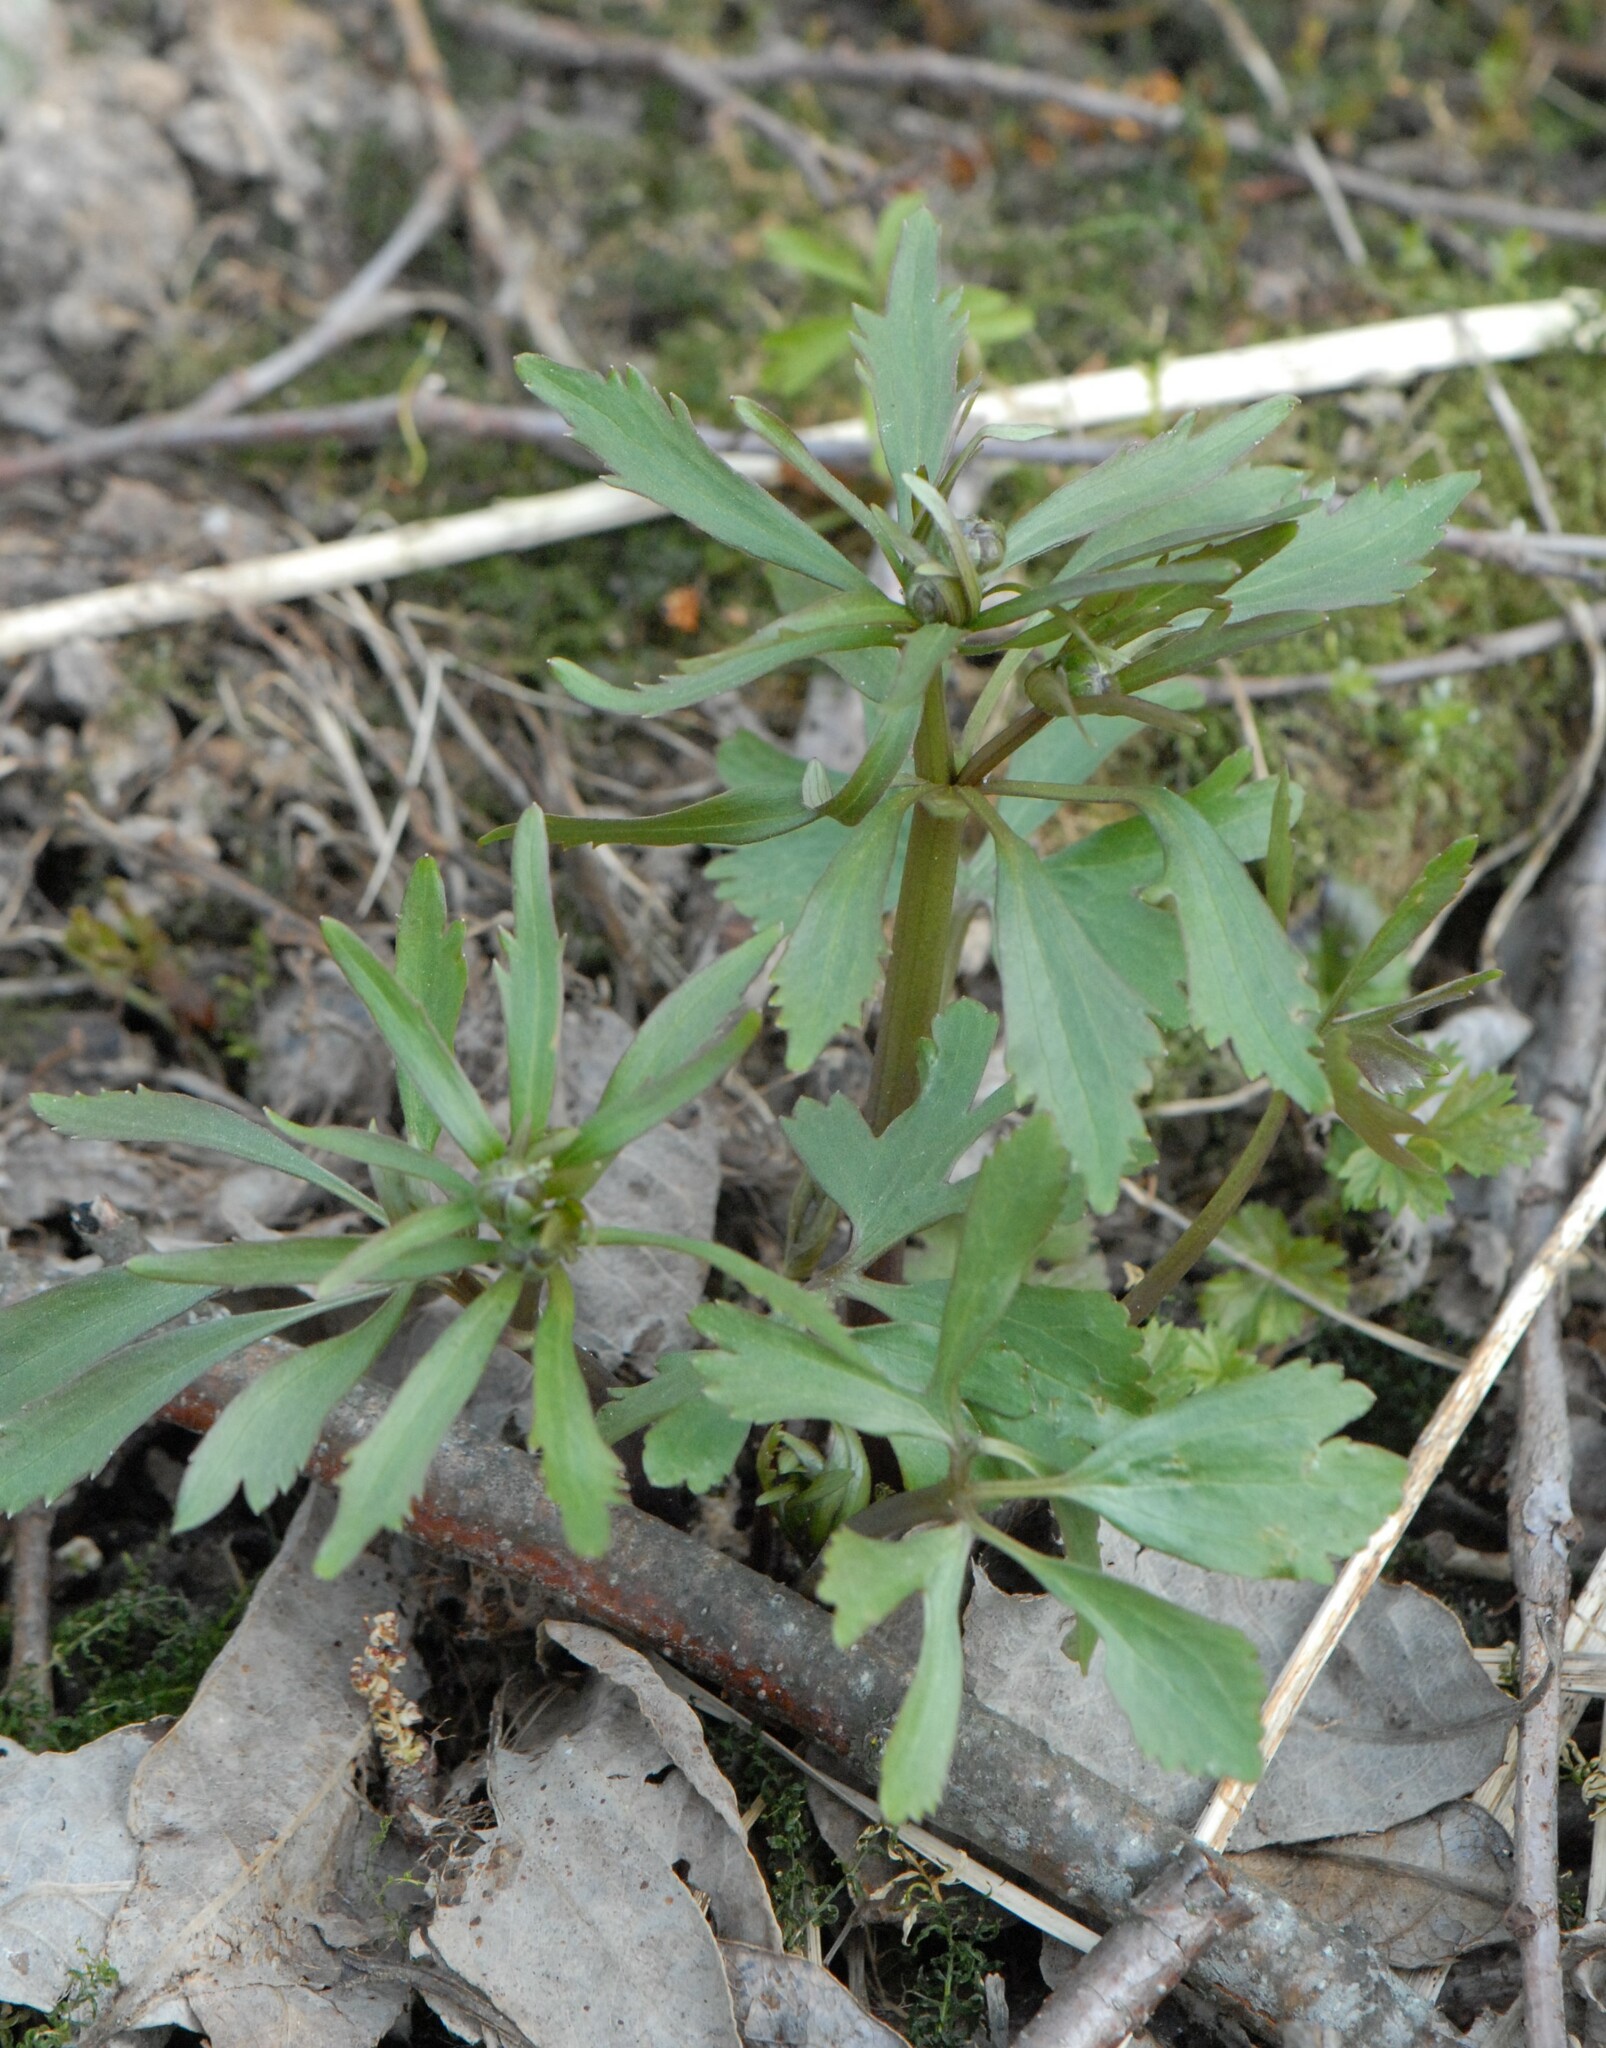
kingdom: Plantae
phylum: Tracheophyta
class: Magnoliopsida
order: Ranunculales
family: Ranunculaceae
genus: Ranunculus
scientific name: Ranunculus cassubicus
